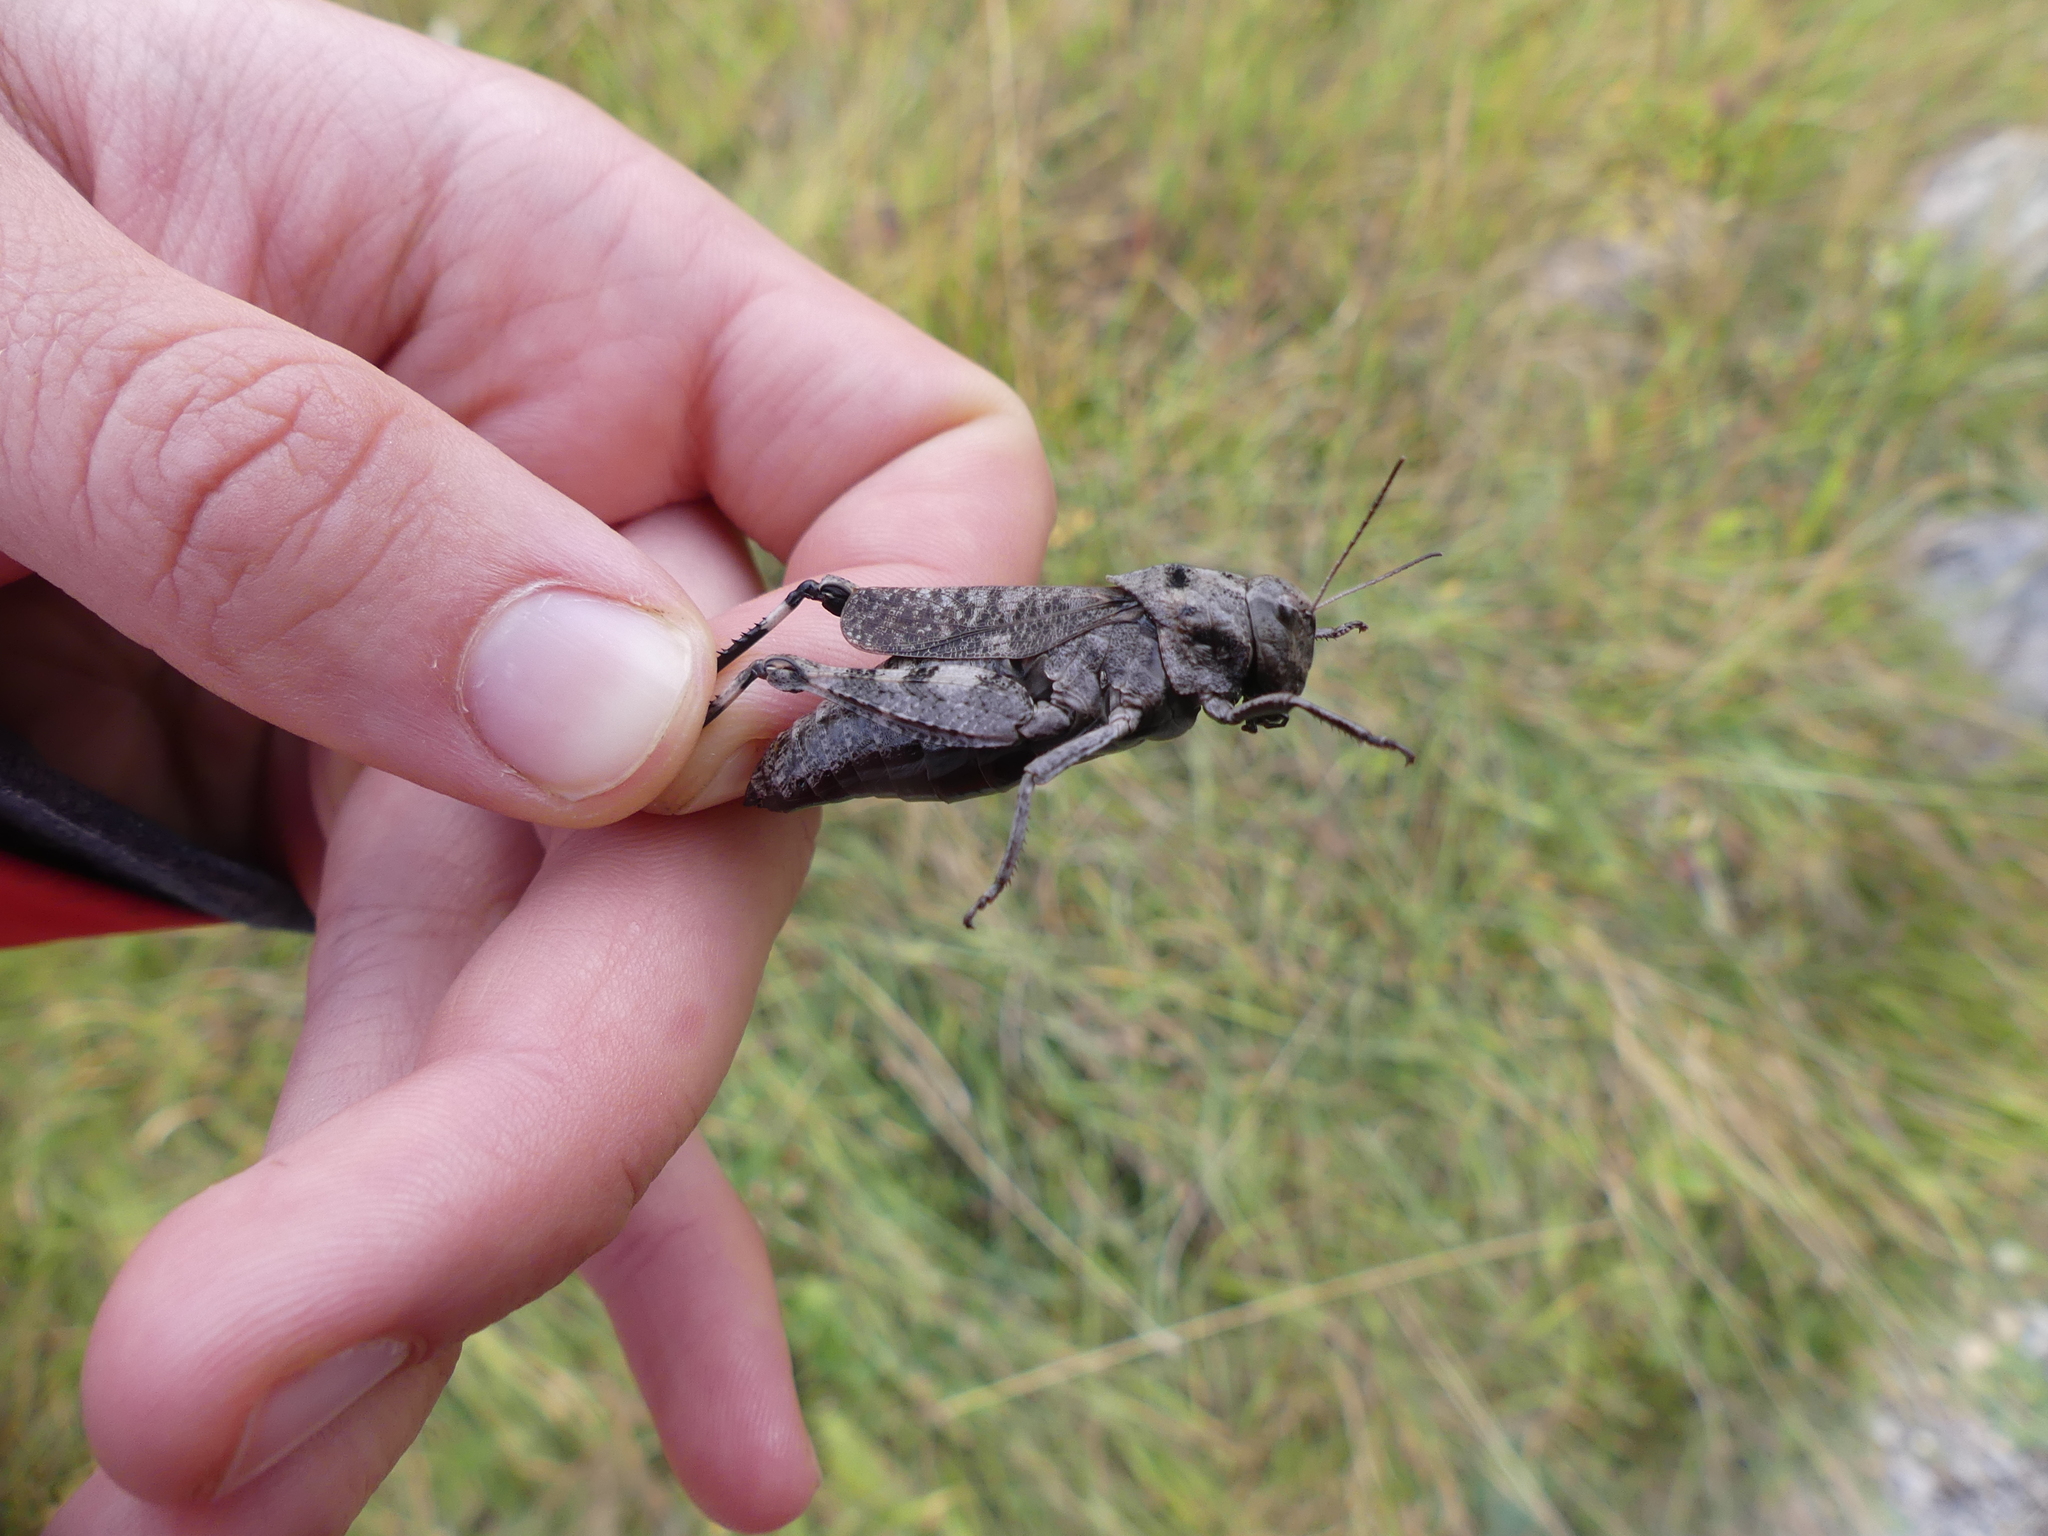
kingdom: Animalia
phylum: Arthropoda
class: Insecta
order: Orthoptera
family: Acrididae
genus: Psophus
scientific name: Psophus stridulus
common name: Rattle grasshopper
